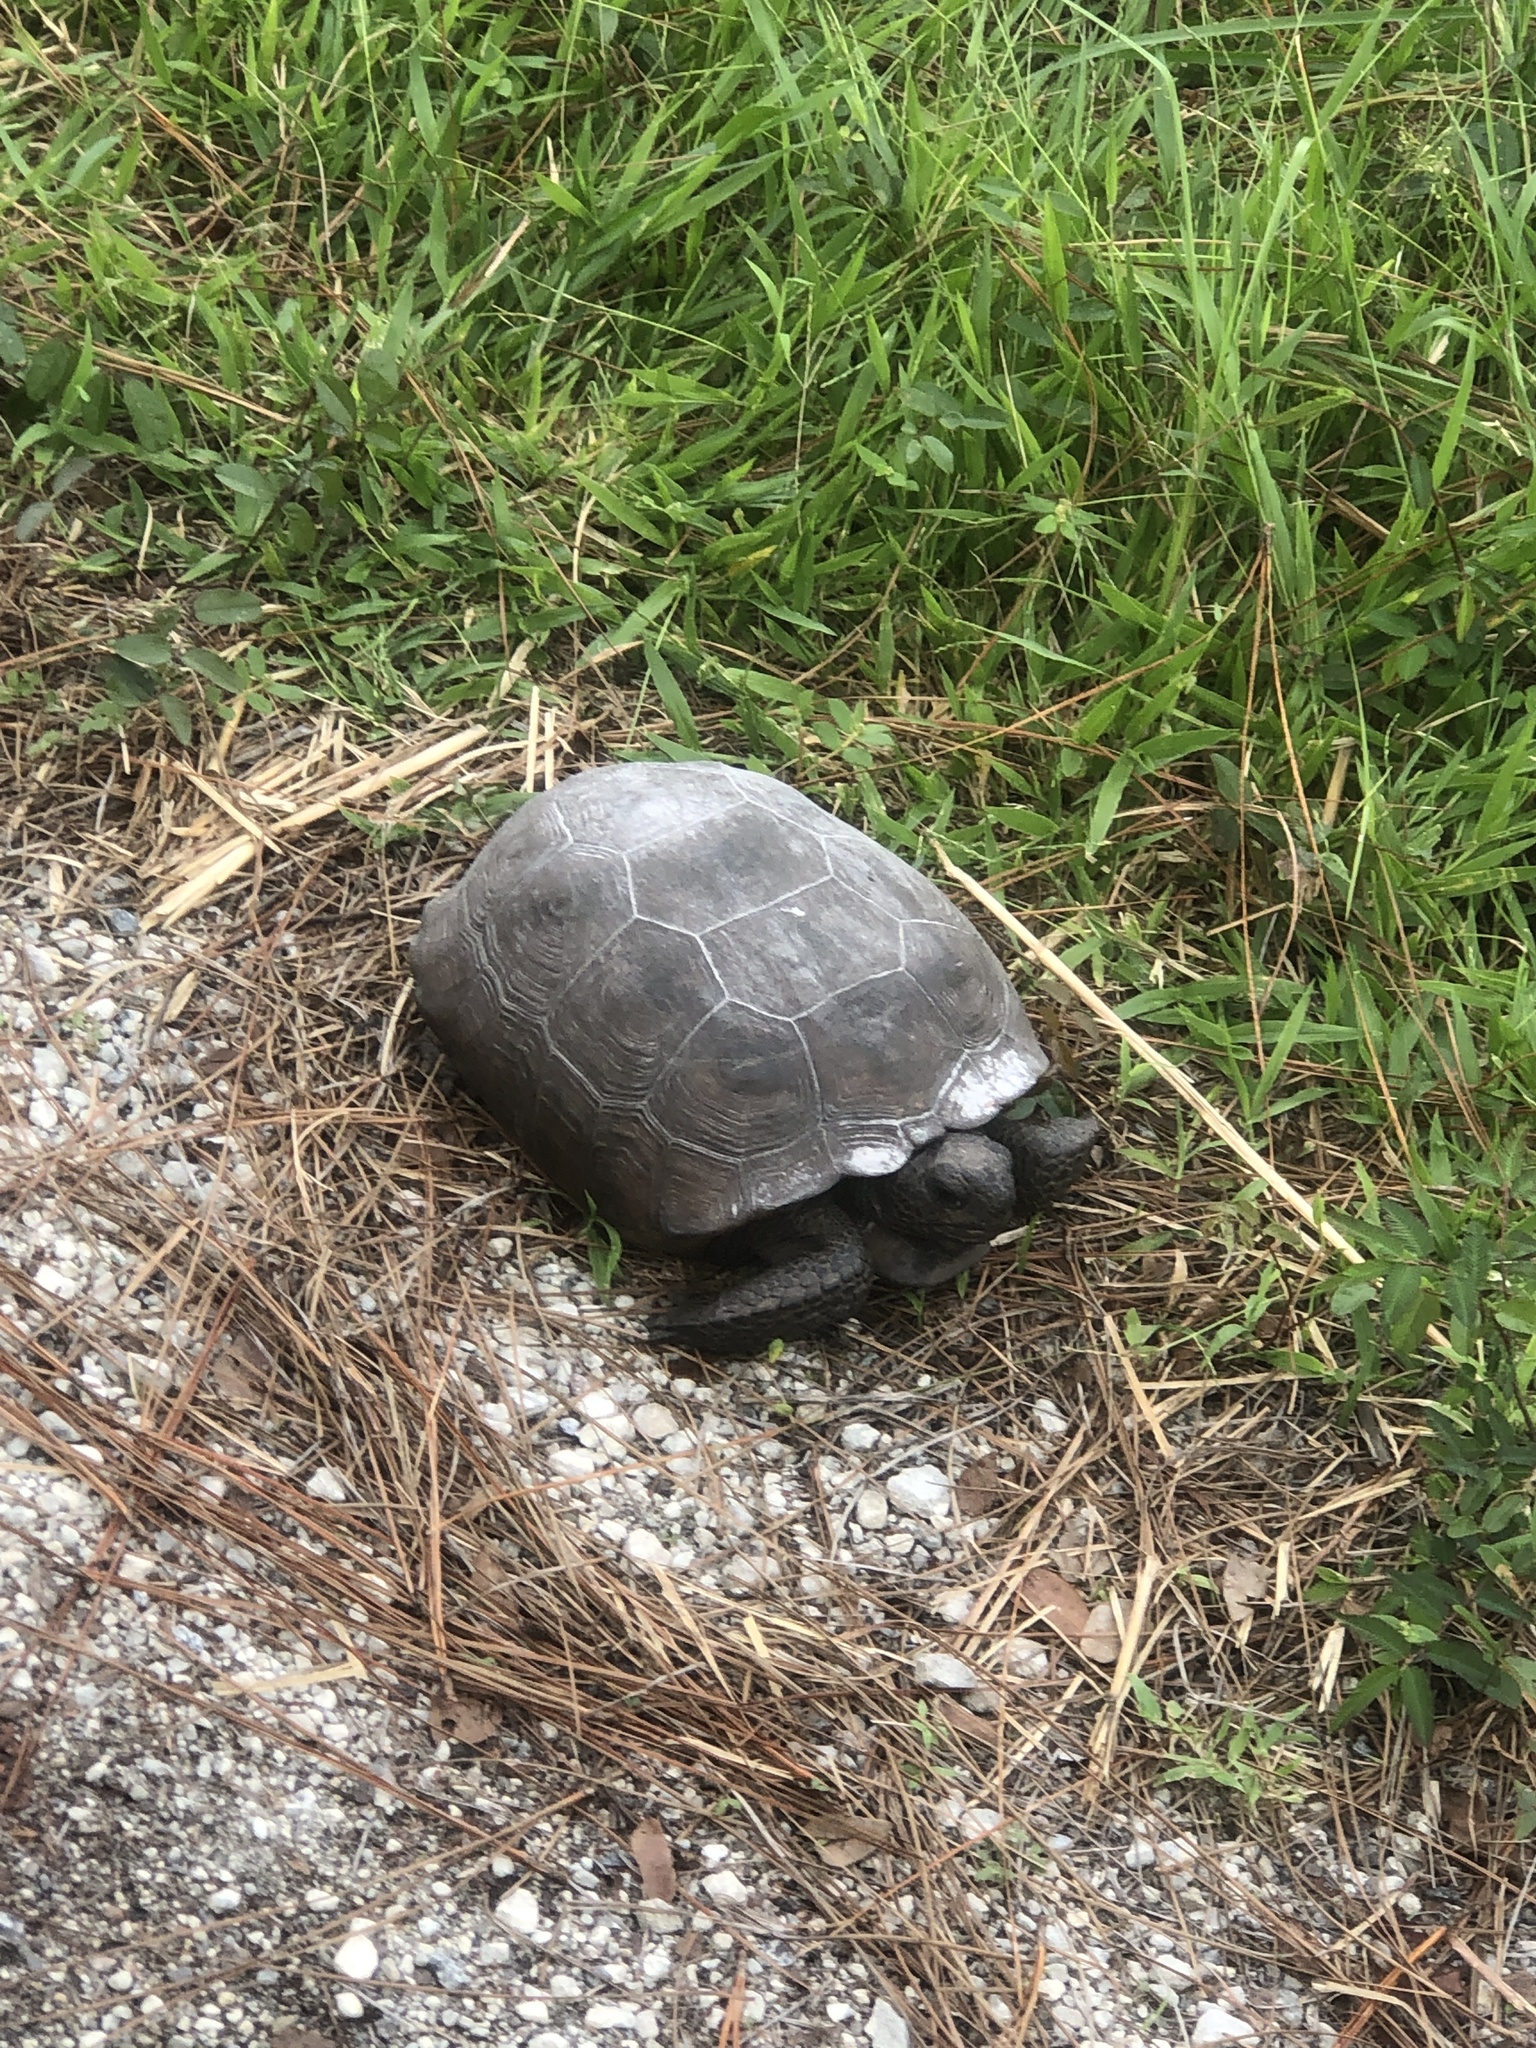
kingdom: Animalia
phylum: Chordata
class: Testudines
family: Testudinidae
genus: Gopherus
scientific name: Gopherus polyphemus
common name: Florida gopher tortoise
